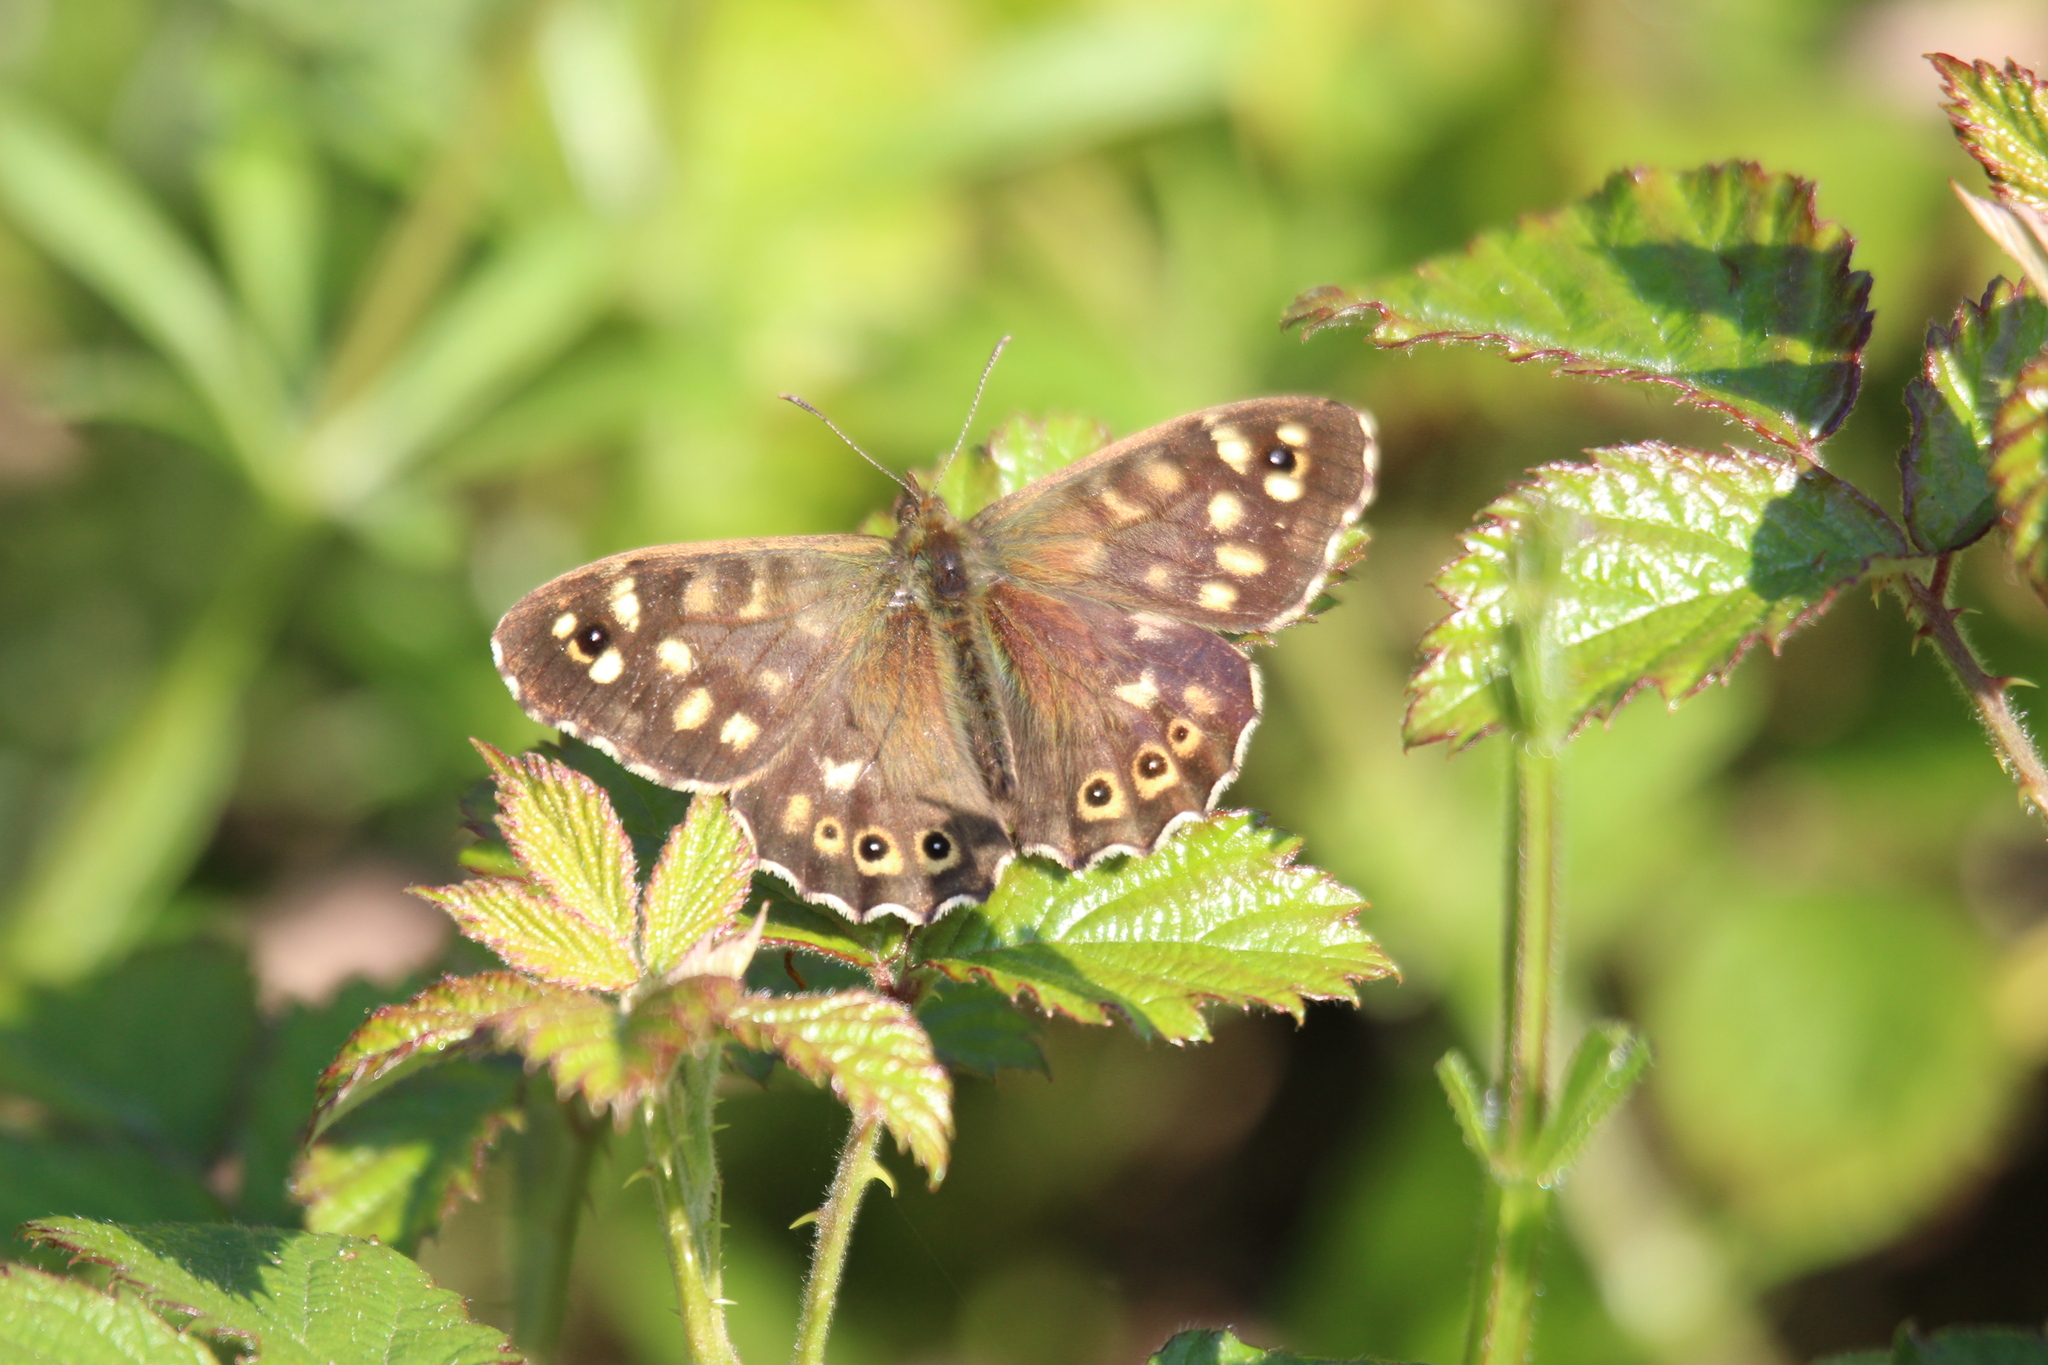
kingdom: Animalia
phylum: Arthropoda
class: Insecta
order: Lepidoptera
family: Nymphalidae
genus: Pararge
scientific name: Pararge aegeria
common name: Speckled wood
